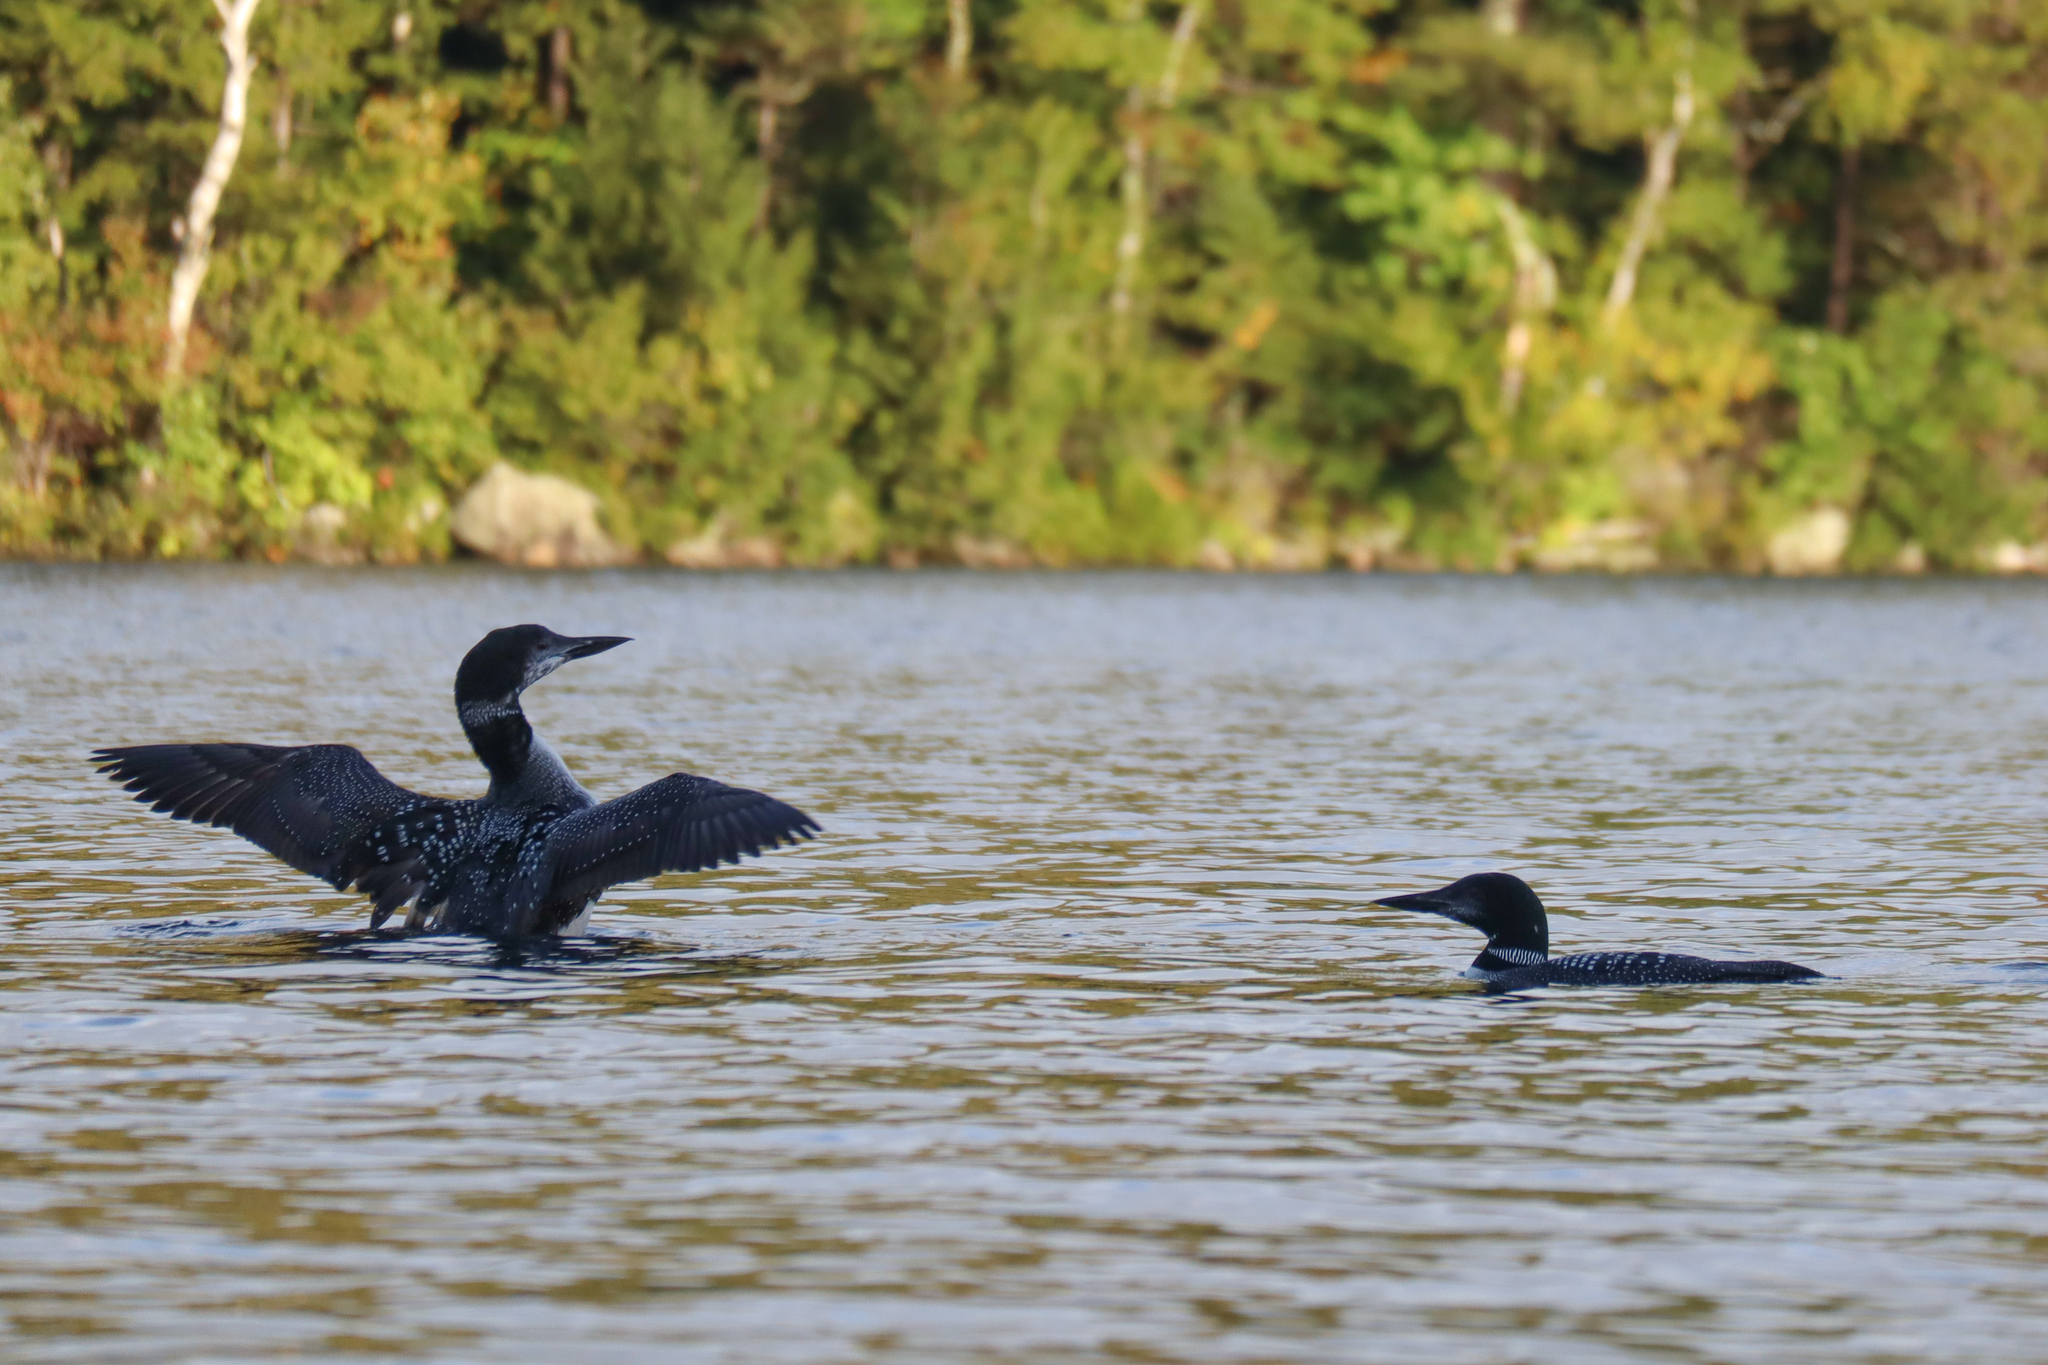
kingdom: Animalia
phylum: Chordata
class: Aves
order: Gaviiformes
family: Gaviidae
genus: Gavia
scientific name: Gavia immer
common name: Common loon
